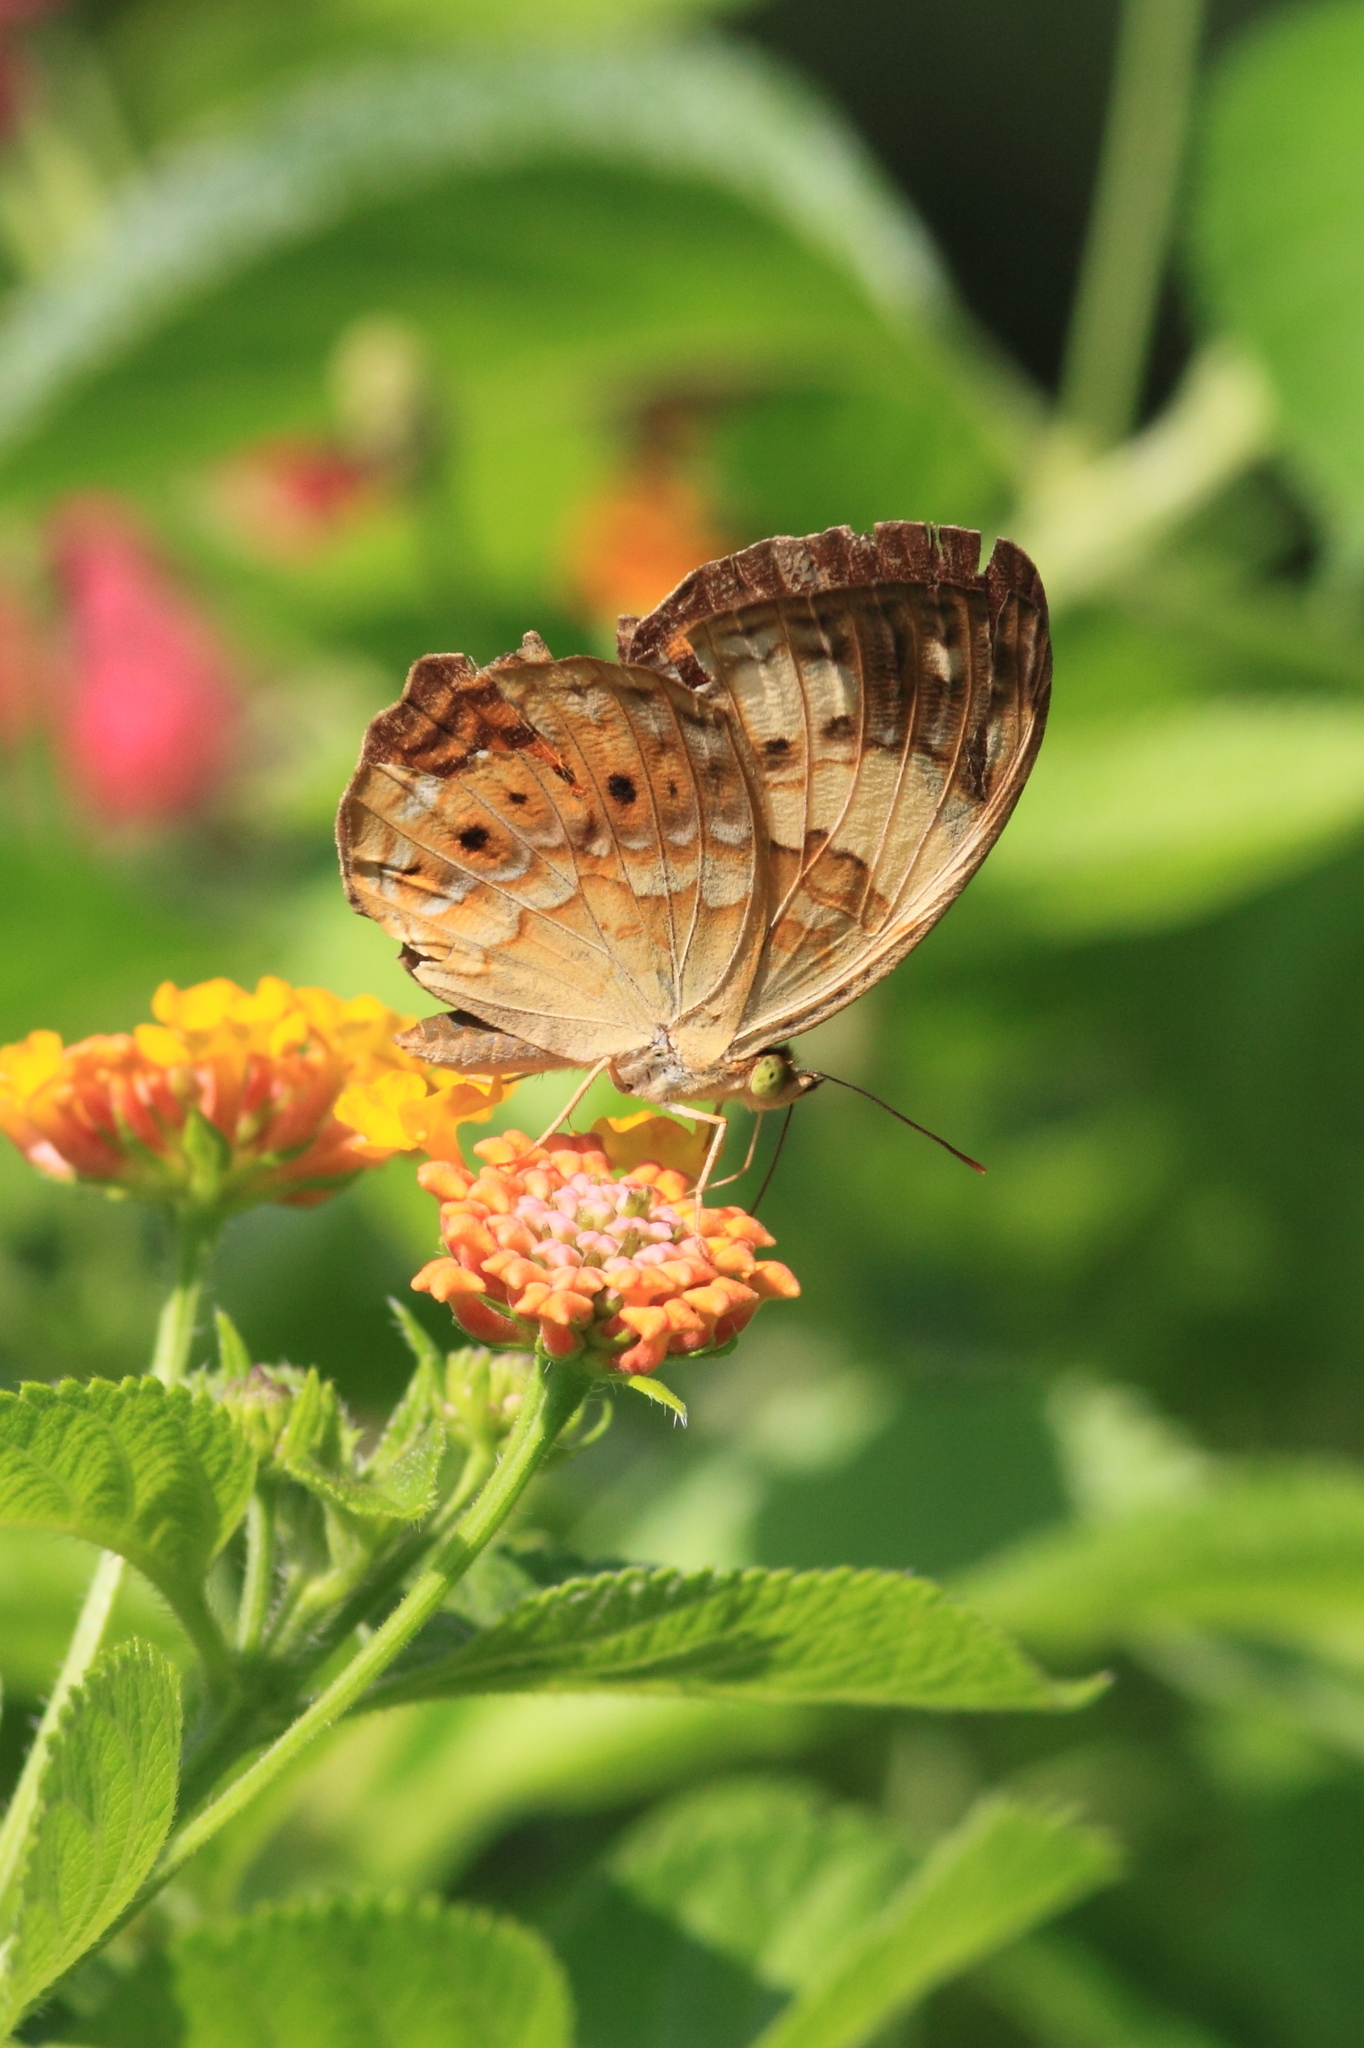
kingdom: Animalia
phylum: Arthropoda
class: Insecta
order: Lepidoptera
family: Nymphalidae
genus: Cupha
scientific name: Cupha erymanthis
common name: Rustic
